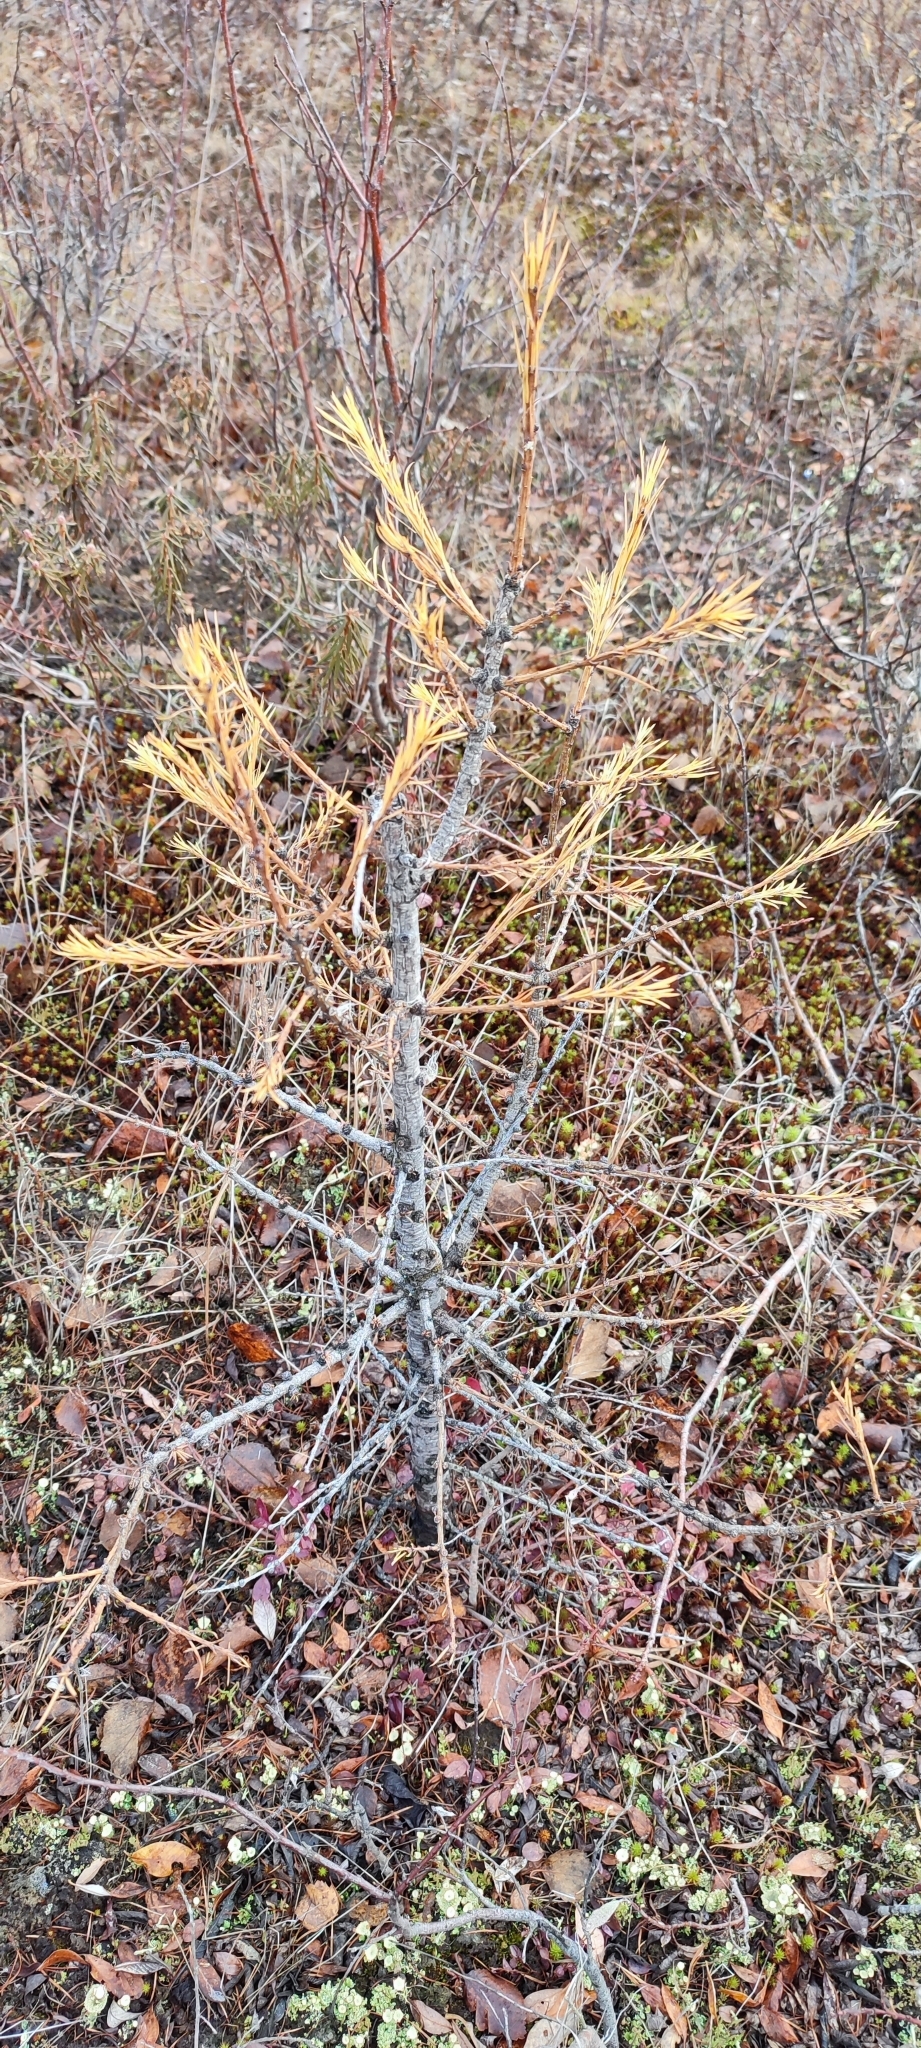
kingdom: Plantae
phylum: Tracheophyta
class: Pinopsida
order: Pinales
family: Pinaceae
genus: Larix
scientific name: Larix sibirica
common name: Siberian larch
